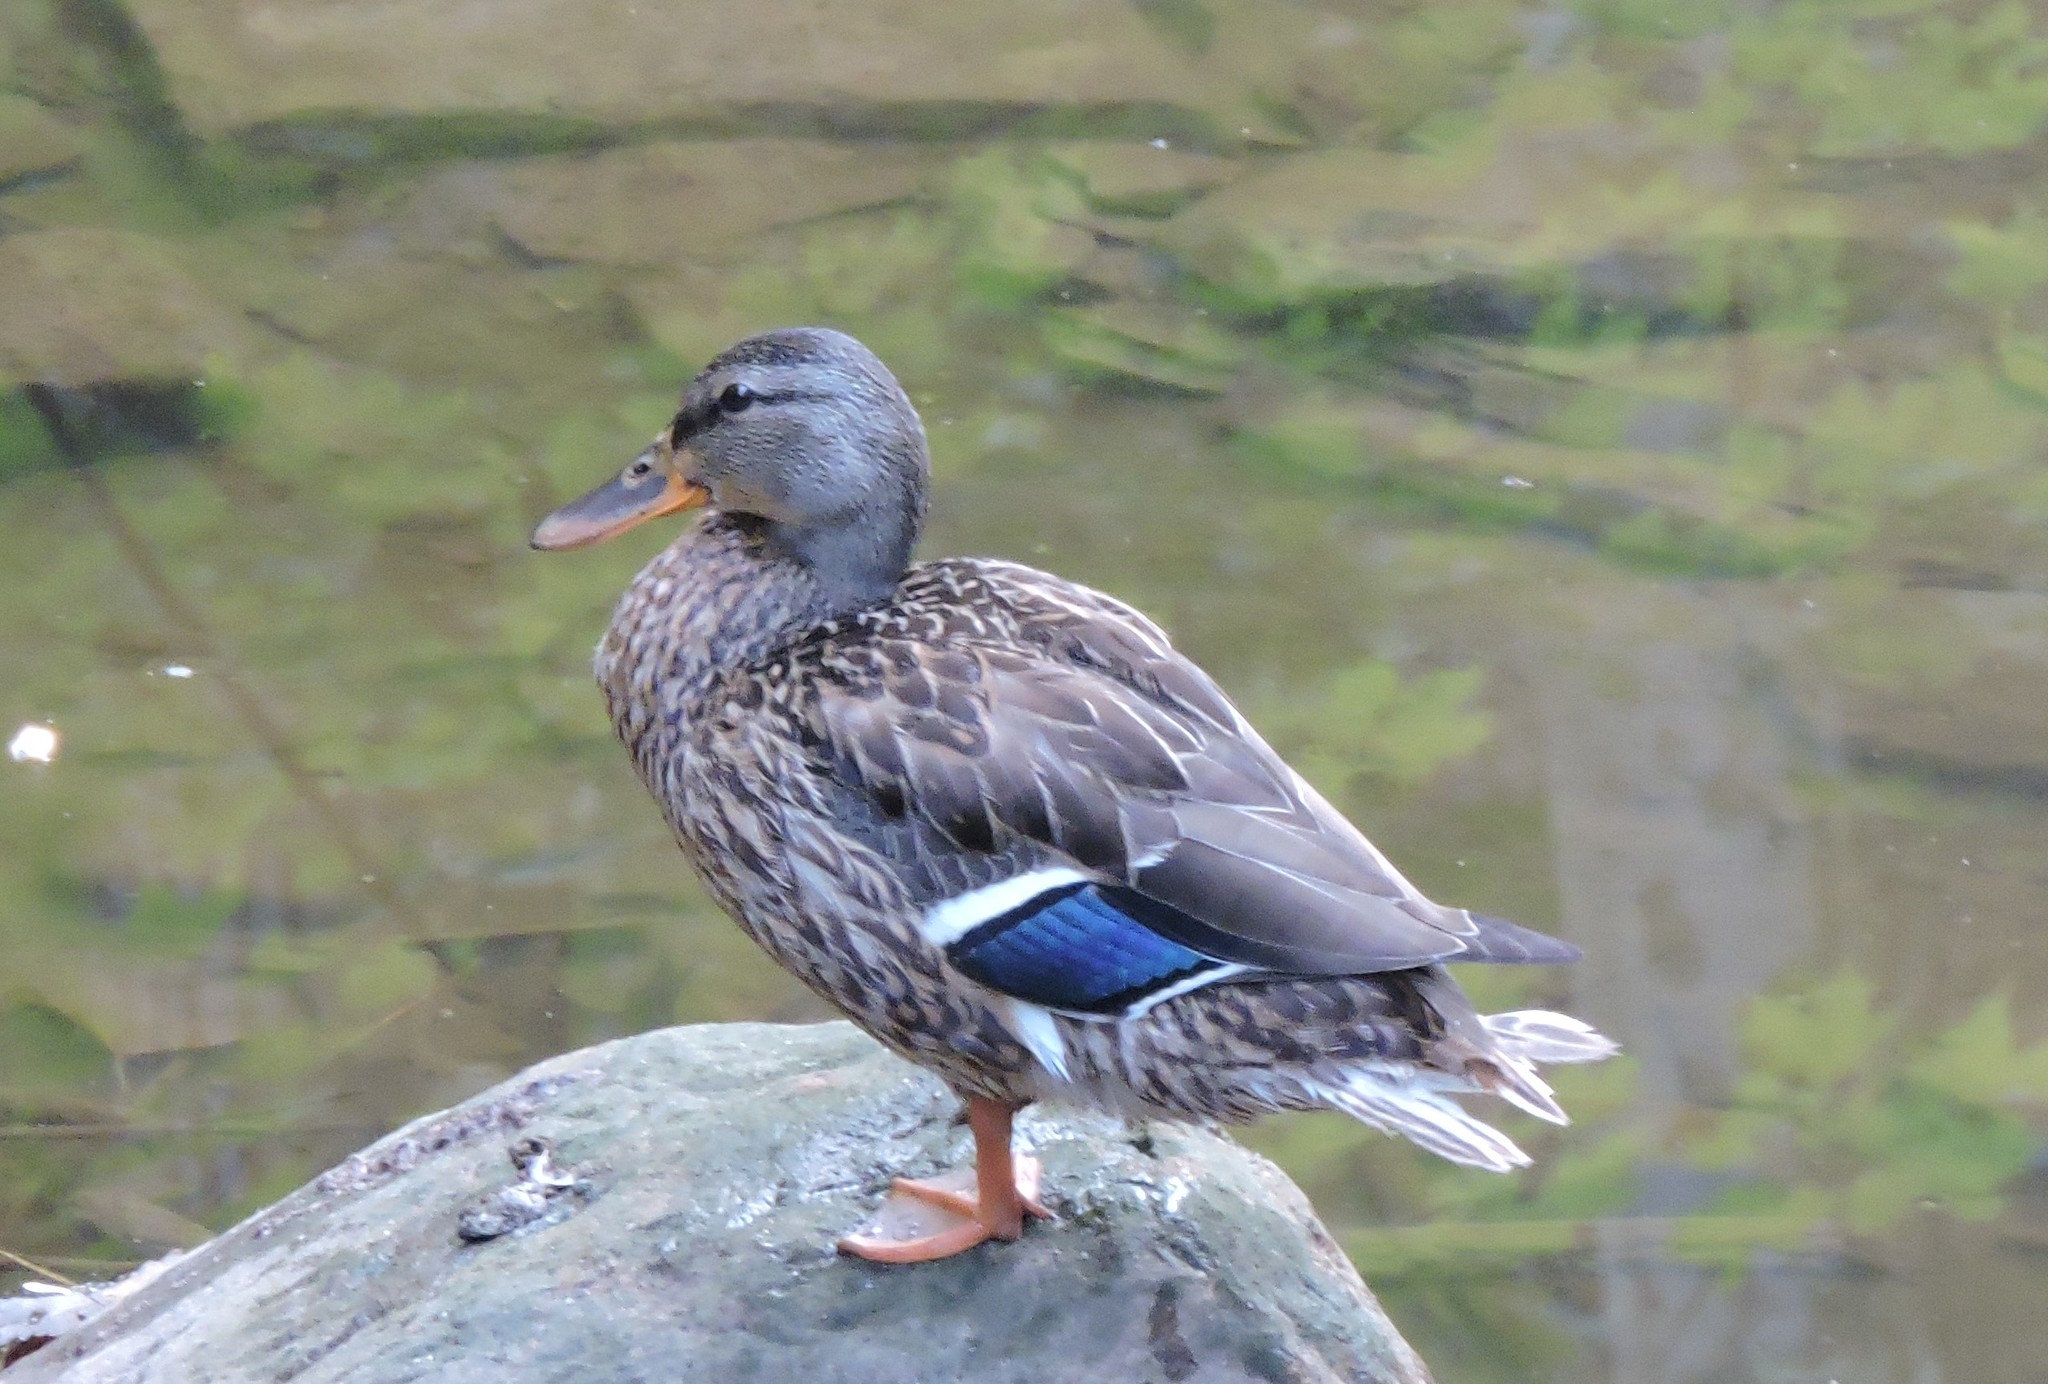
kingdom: Animalia
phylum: Chordata
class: Aves
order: Anseriformes
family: Anatidae
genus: Anas
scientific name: Anas platyrhynchos
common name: Mallard
